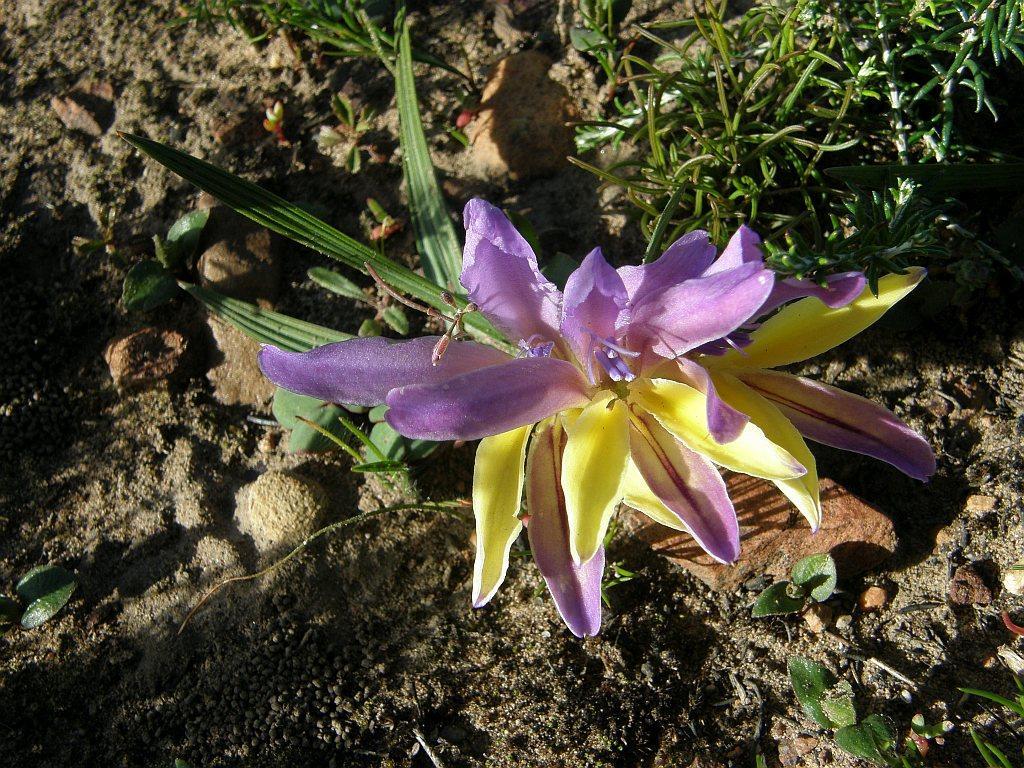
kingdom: Plantae
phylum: Tracheophyta
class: Liliopsida
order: Asparagales
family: Iridaceae
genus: Babiana
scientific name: Babiana patula
